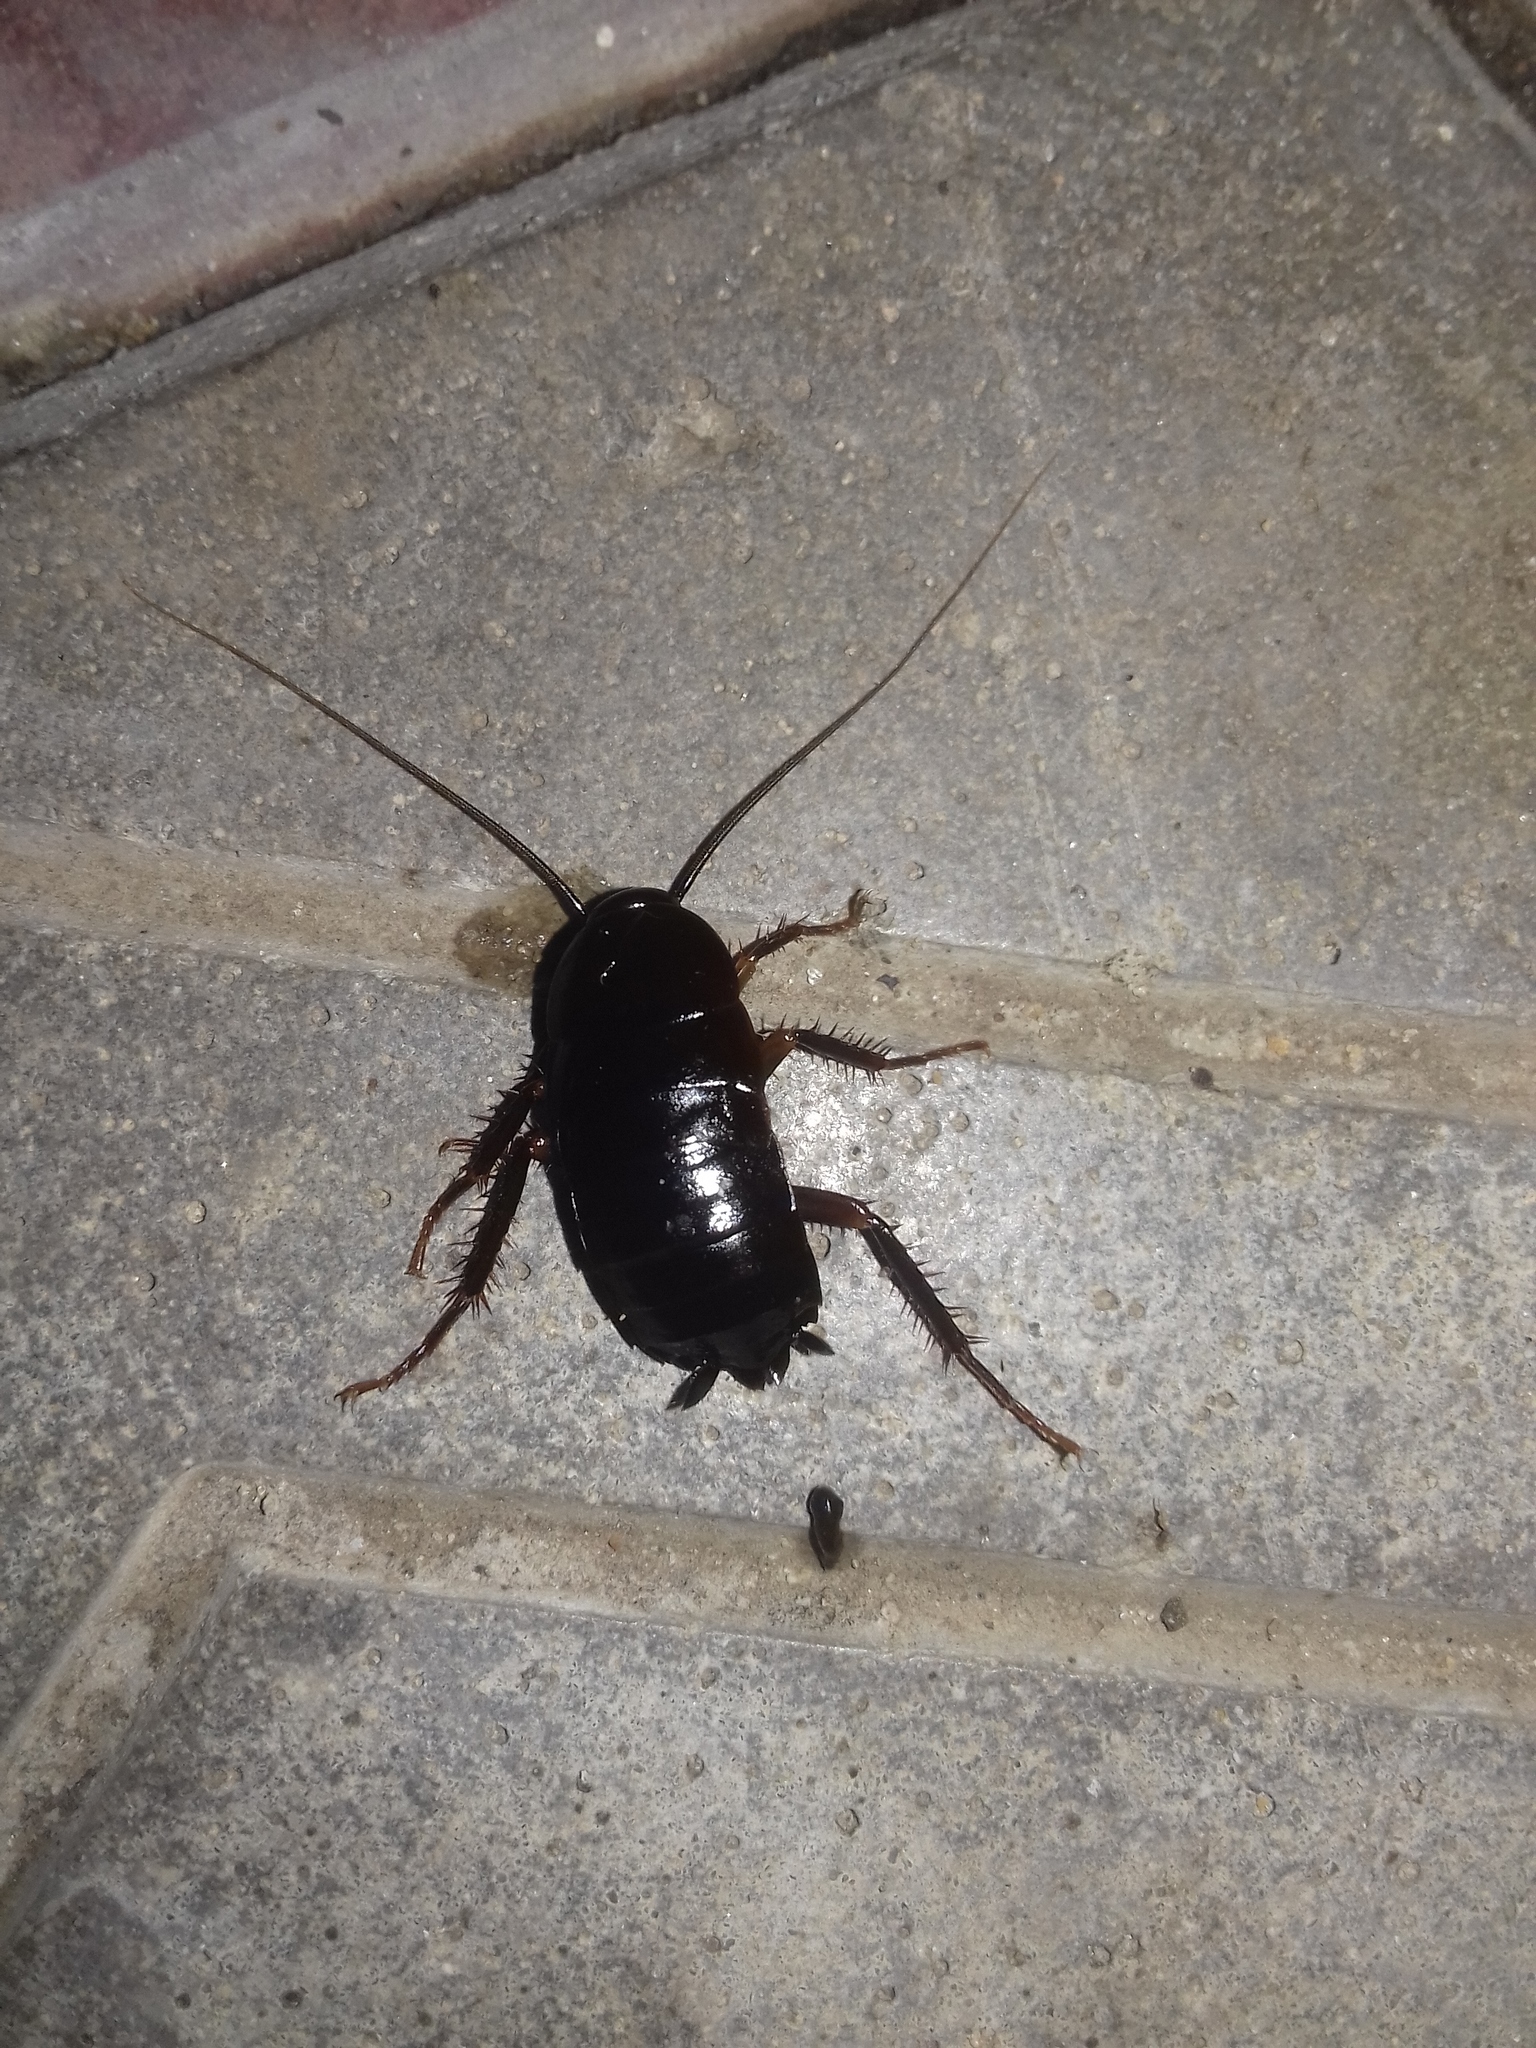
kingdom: Animalia
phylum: Arthropoda
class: Insecta
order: Blattodea
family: Blattidae
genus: Blatta
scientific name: Blatta orientalis
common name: Oriental cockroach
